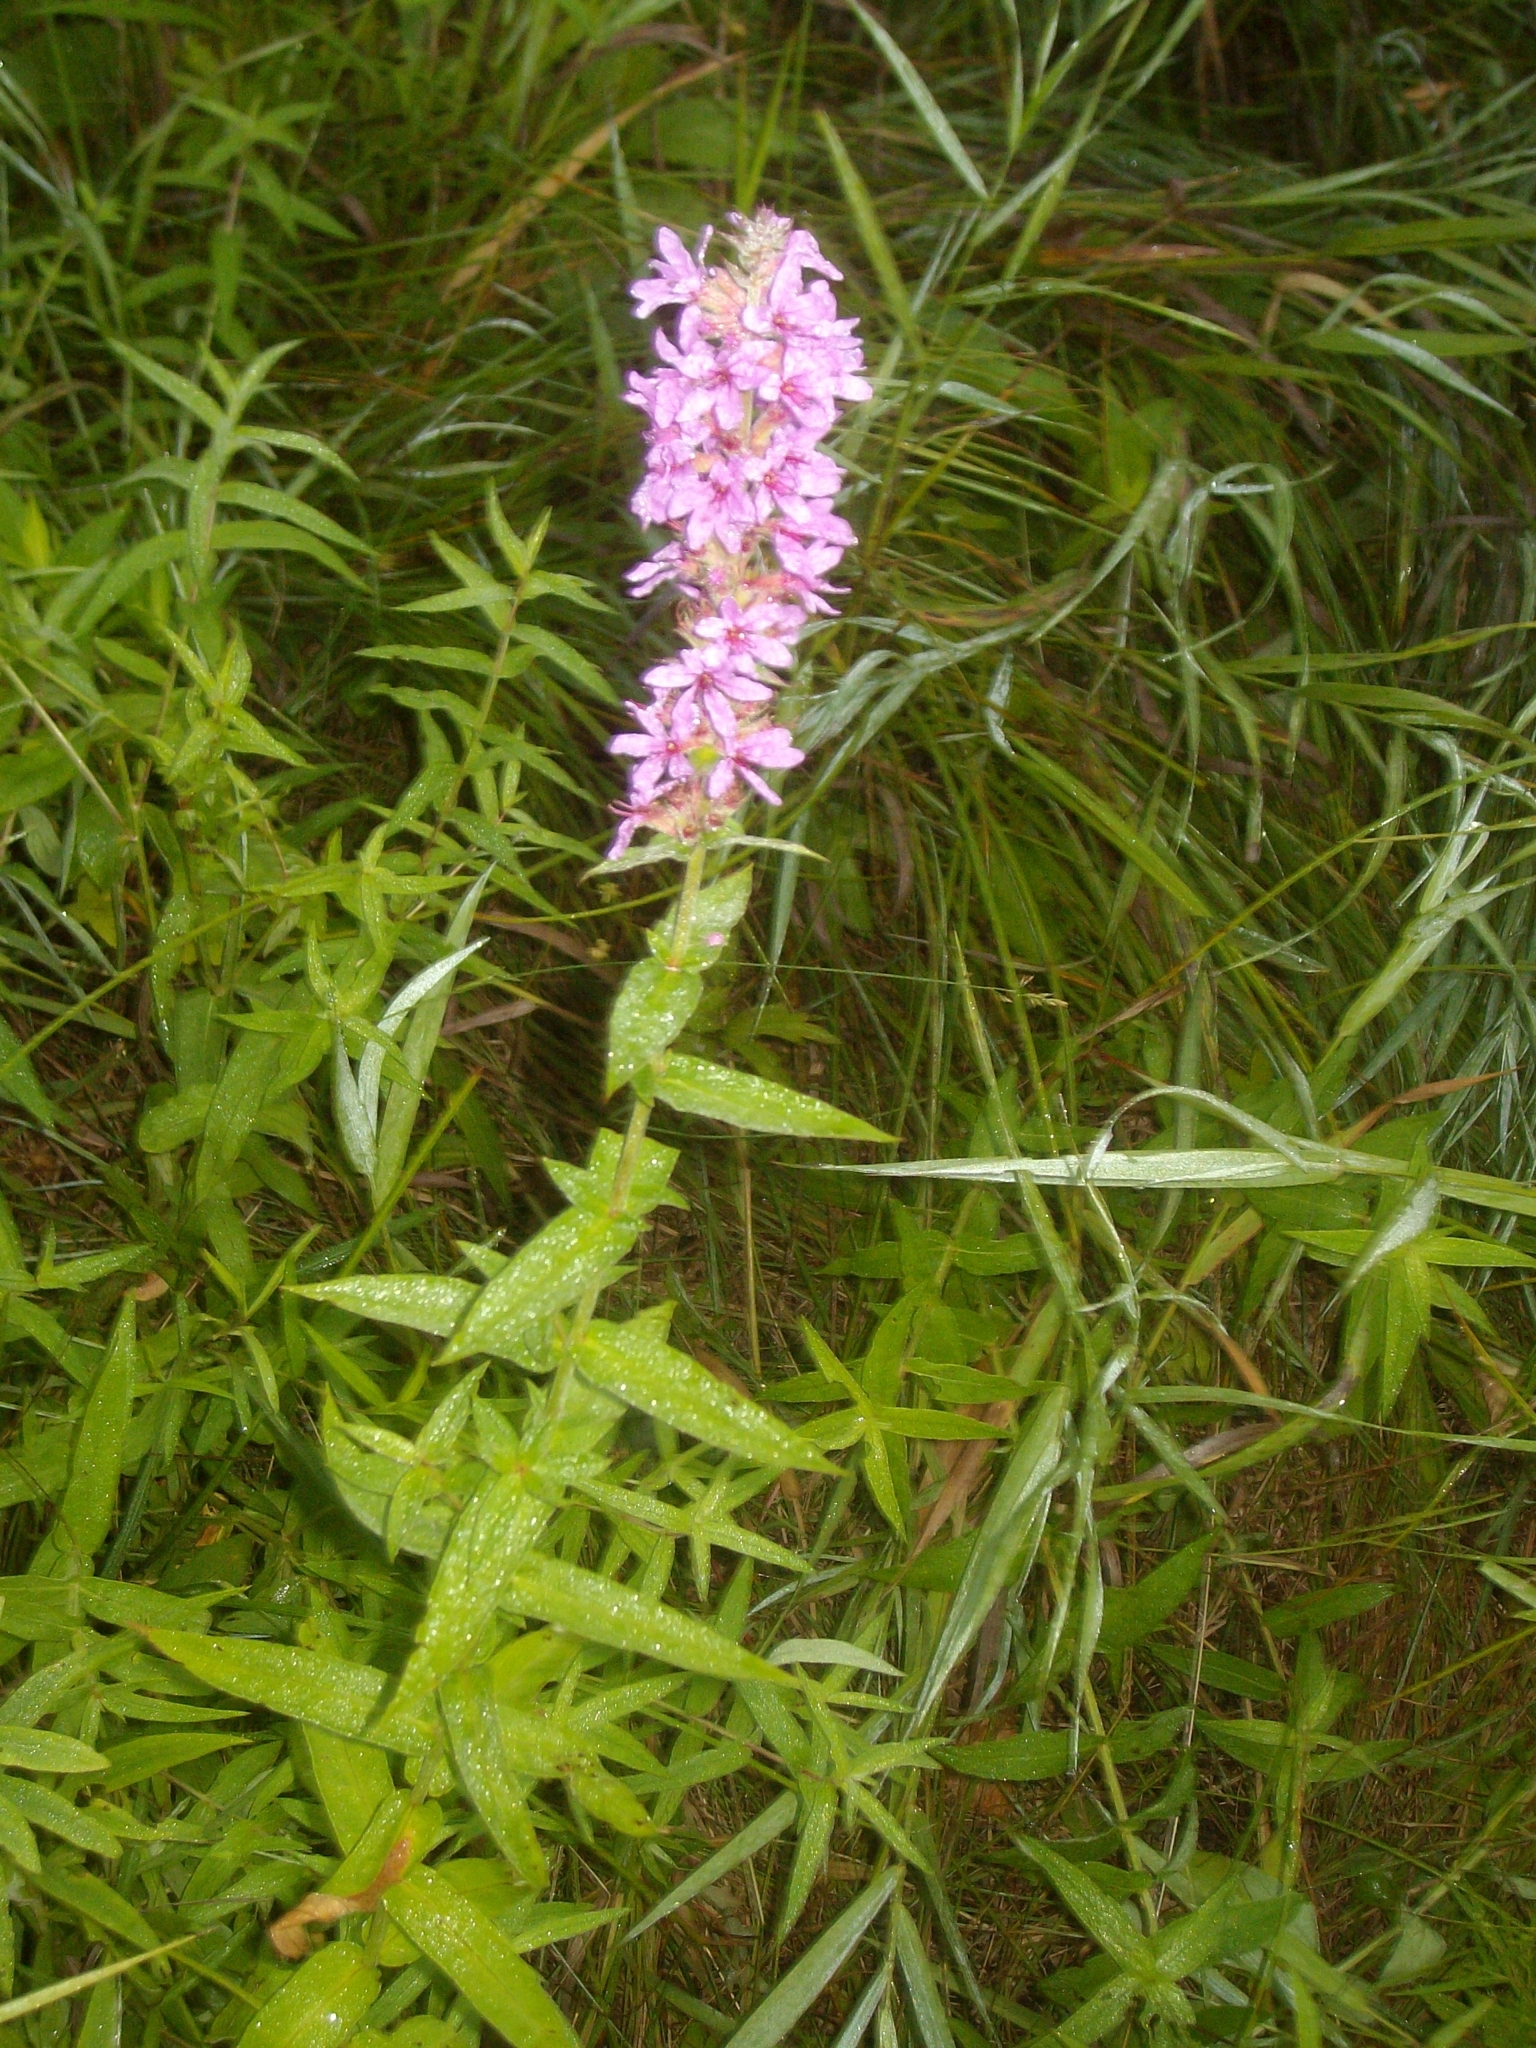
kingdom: Plantae
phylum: Tracheophyta
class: Magnoliopsida
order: Myrtales
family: Lythraceae
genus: Lythrum
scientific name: Lythrum salicaria
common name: Purple loosestrife
